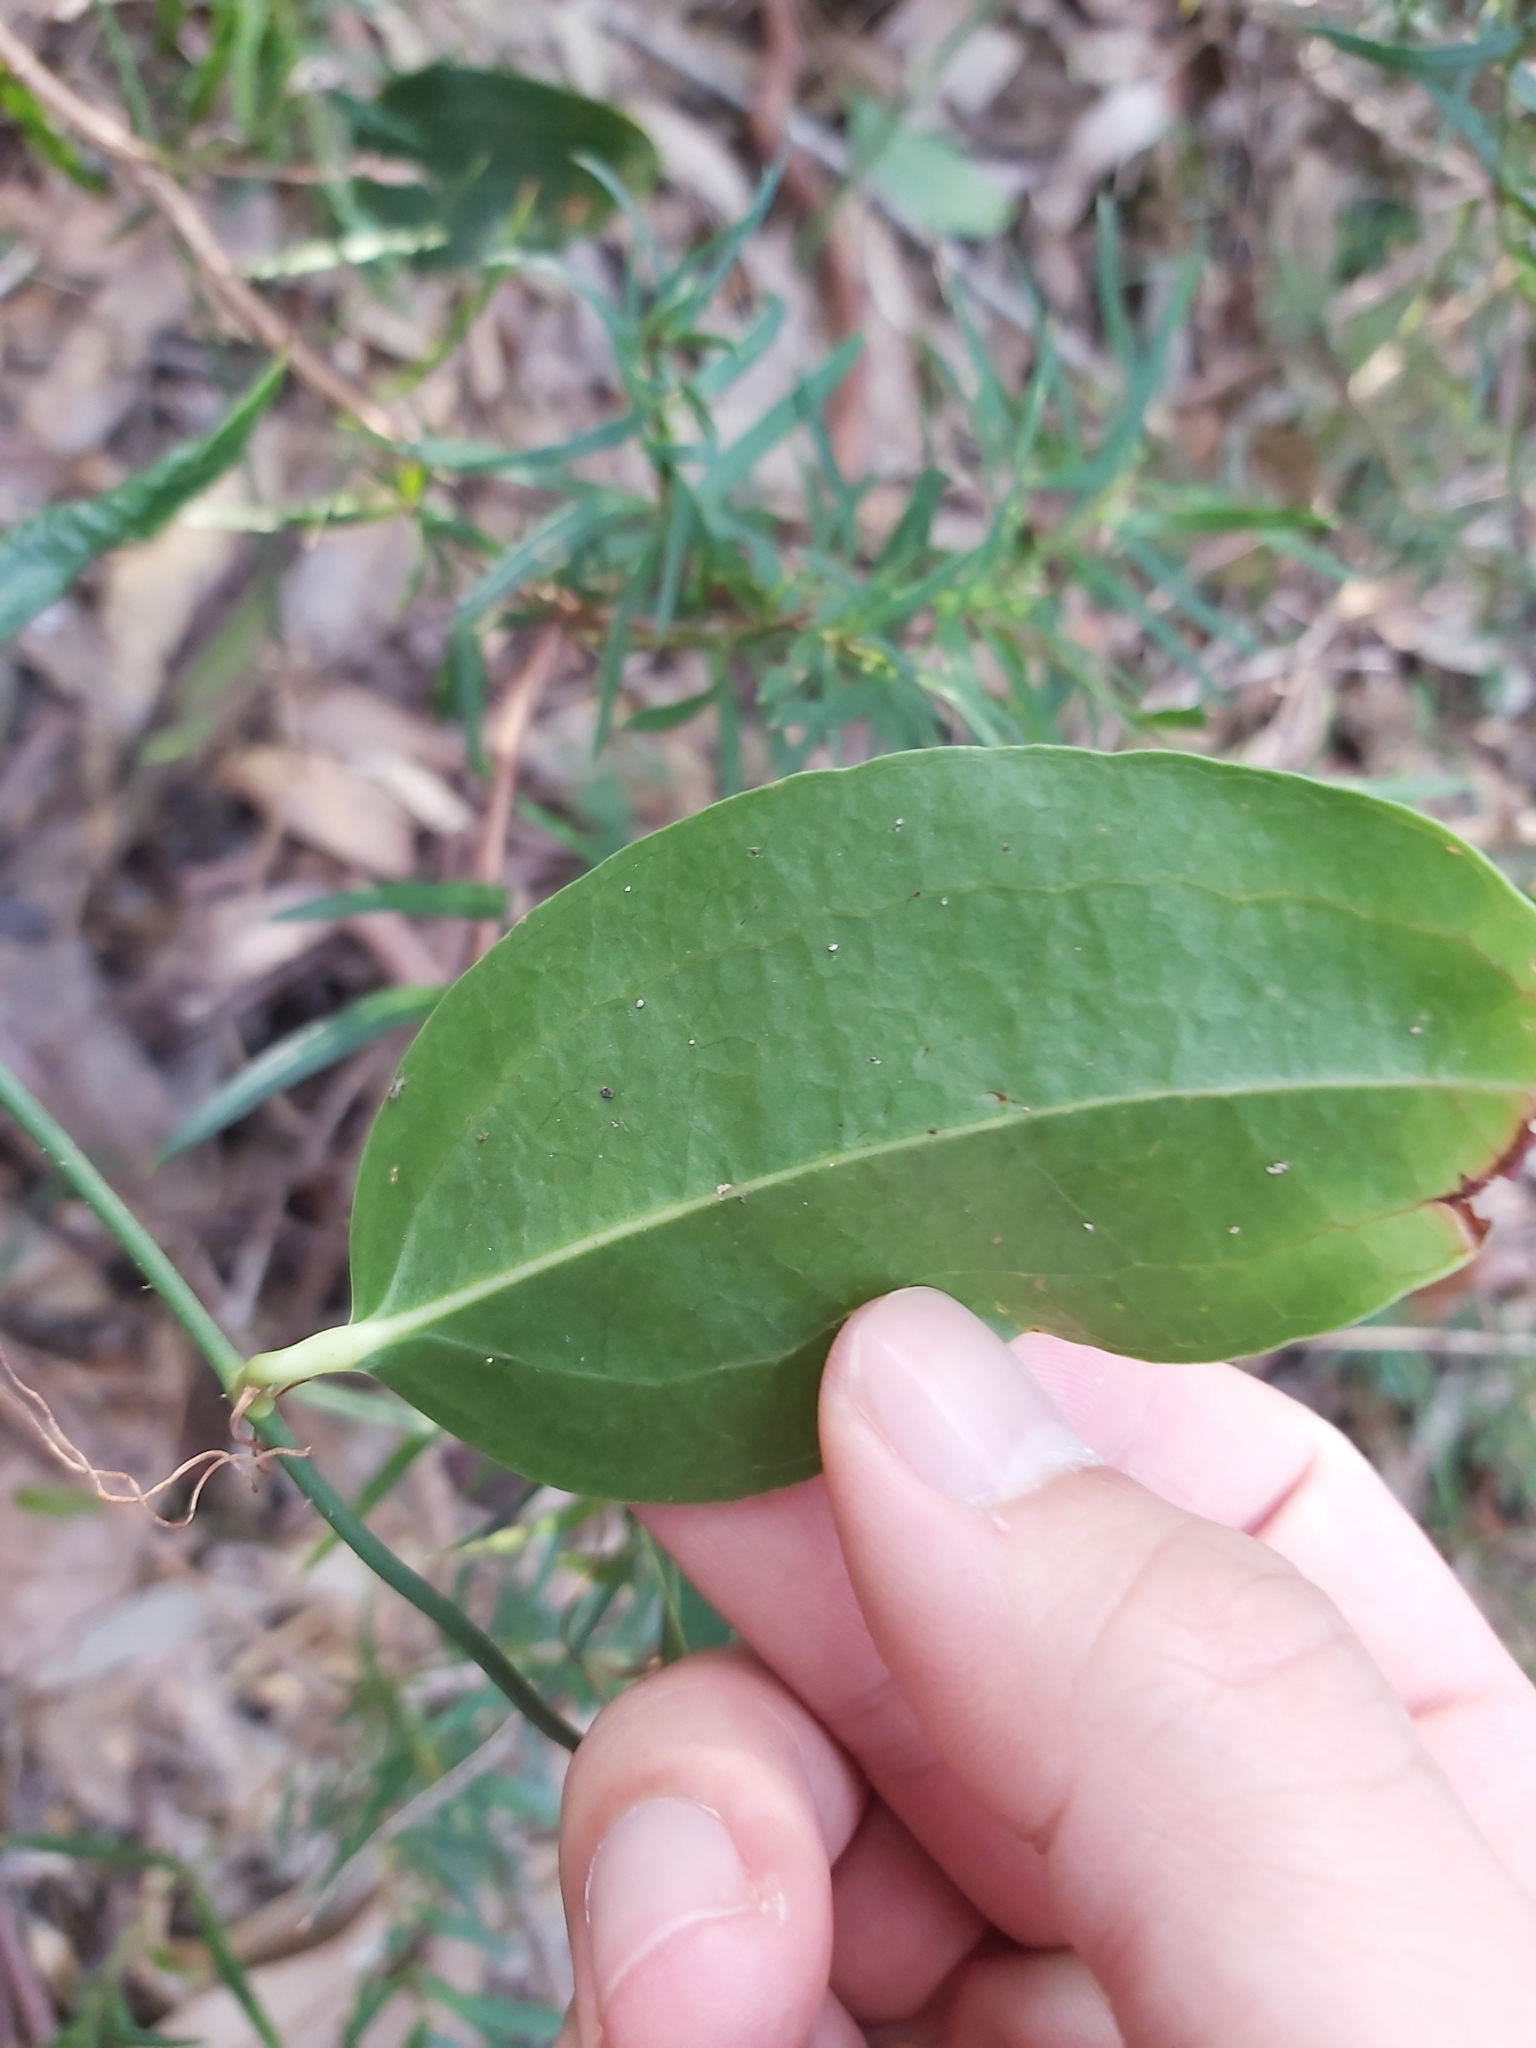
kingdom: Plantae
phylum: Tracheophyta
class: Liliopsida
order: Liliales
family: Smilacaceae
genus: Smilax
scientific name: Smilax australis
